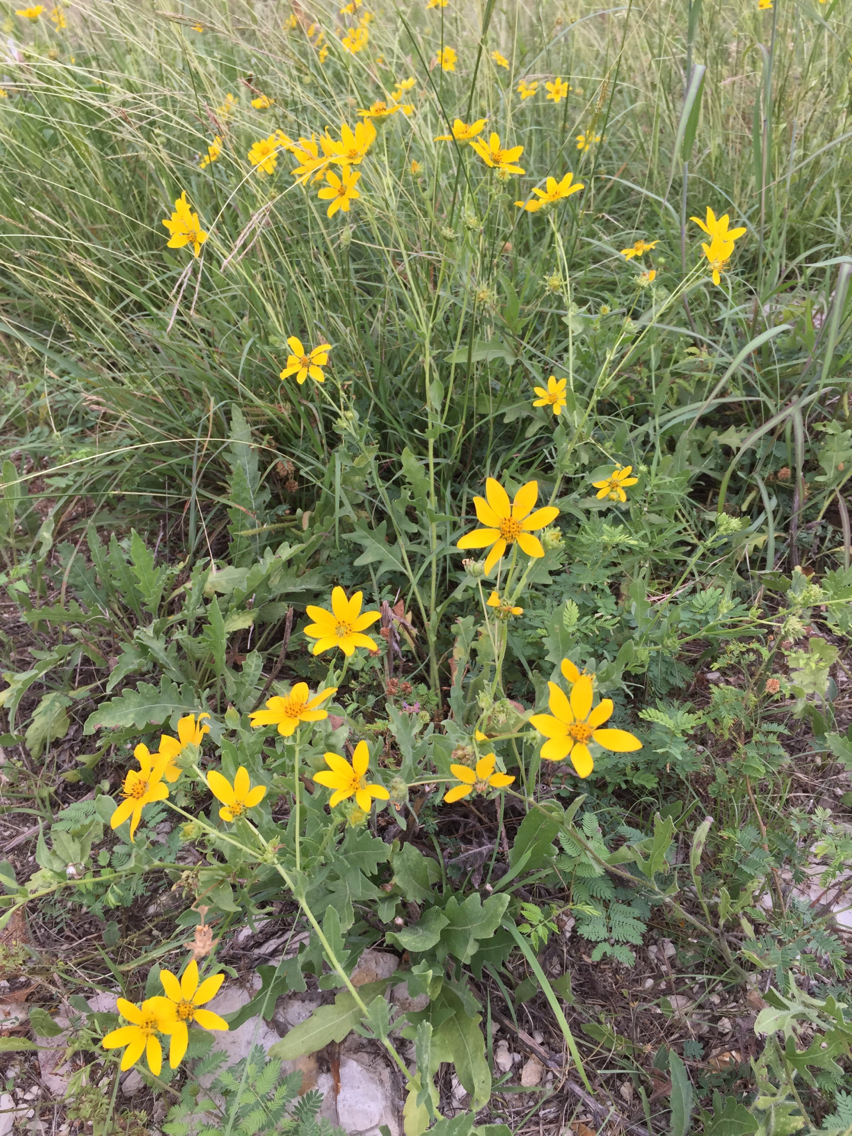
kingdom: Plantae
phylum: Tracheophyta
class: Magnoliopsida
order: Asterales
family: Asteraceae
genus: Engelmannia
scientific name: Engelmannia peristenia
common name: Engelmann's daisy
